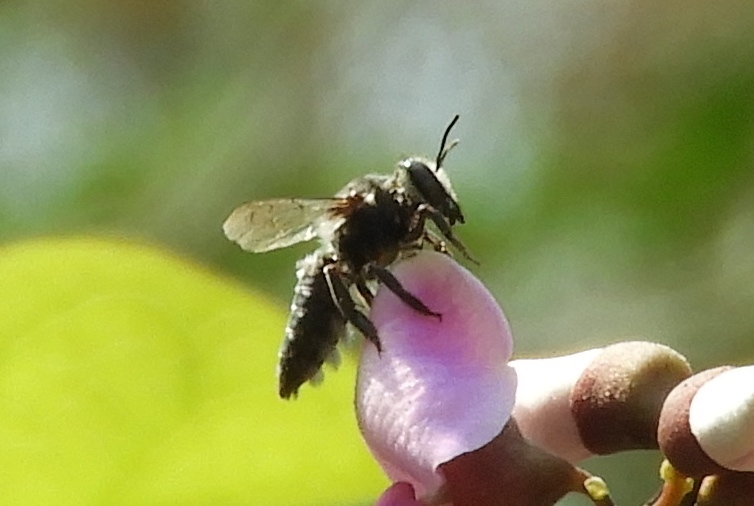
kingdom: Animalia
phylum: Arthropoda
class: Insecta
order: Hymenoptera
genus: Tylomegachile
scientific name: Tylomegachile
